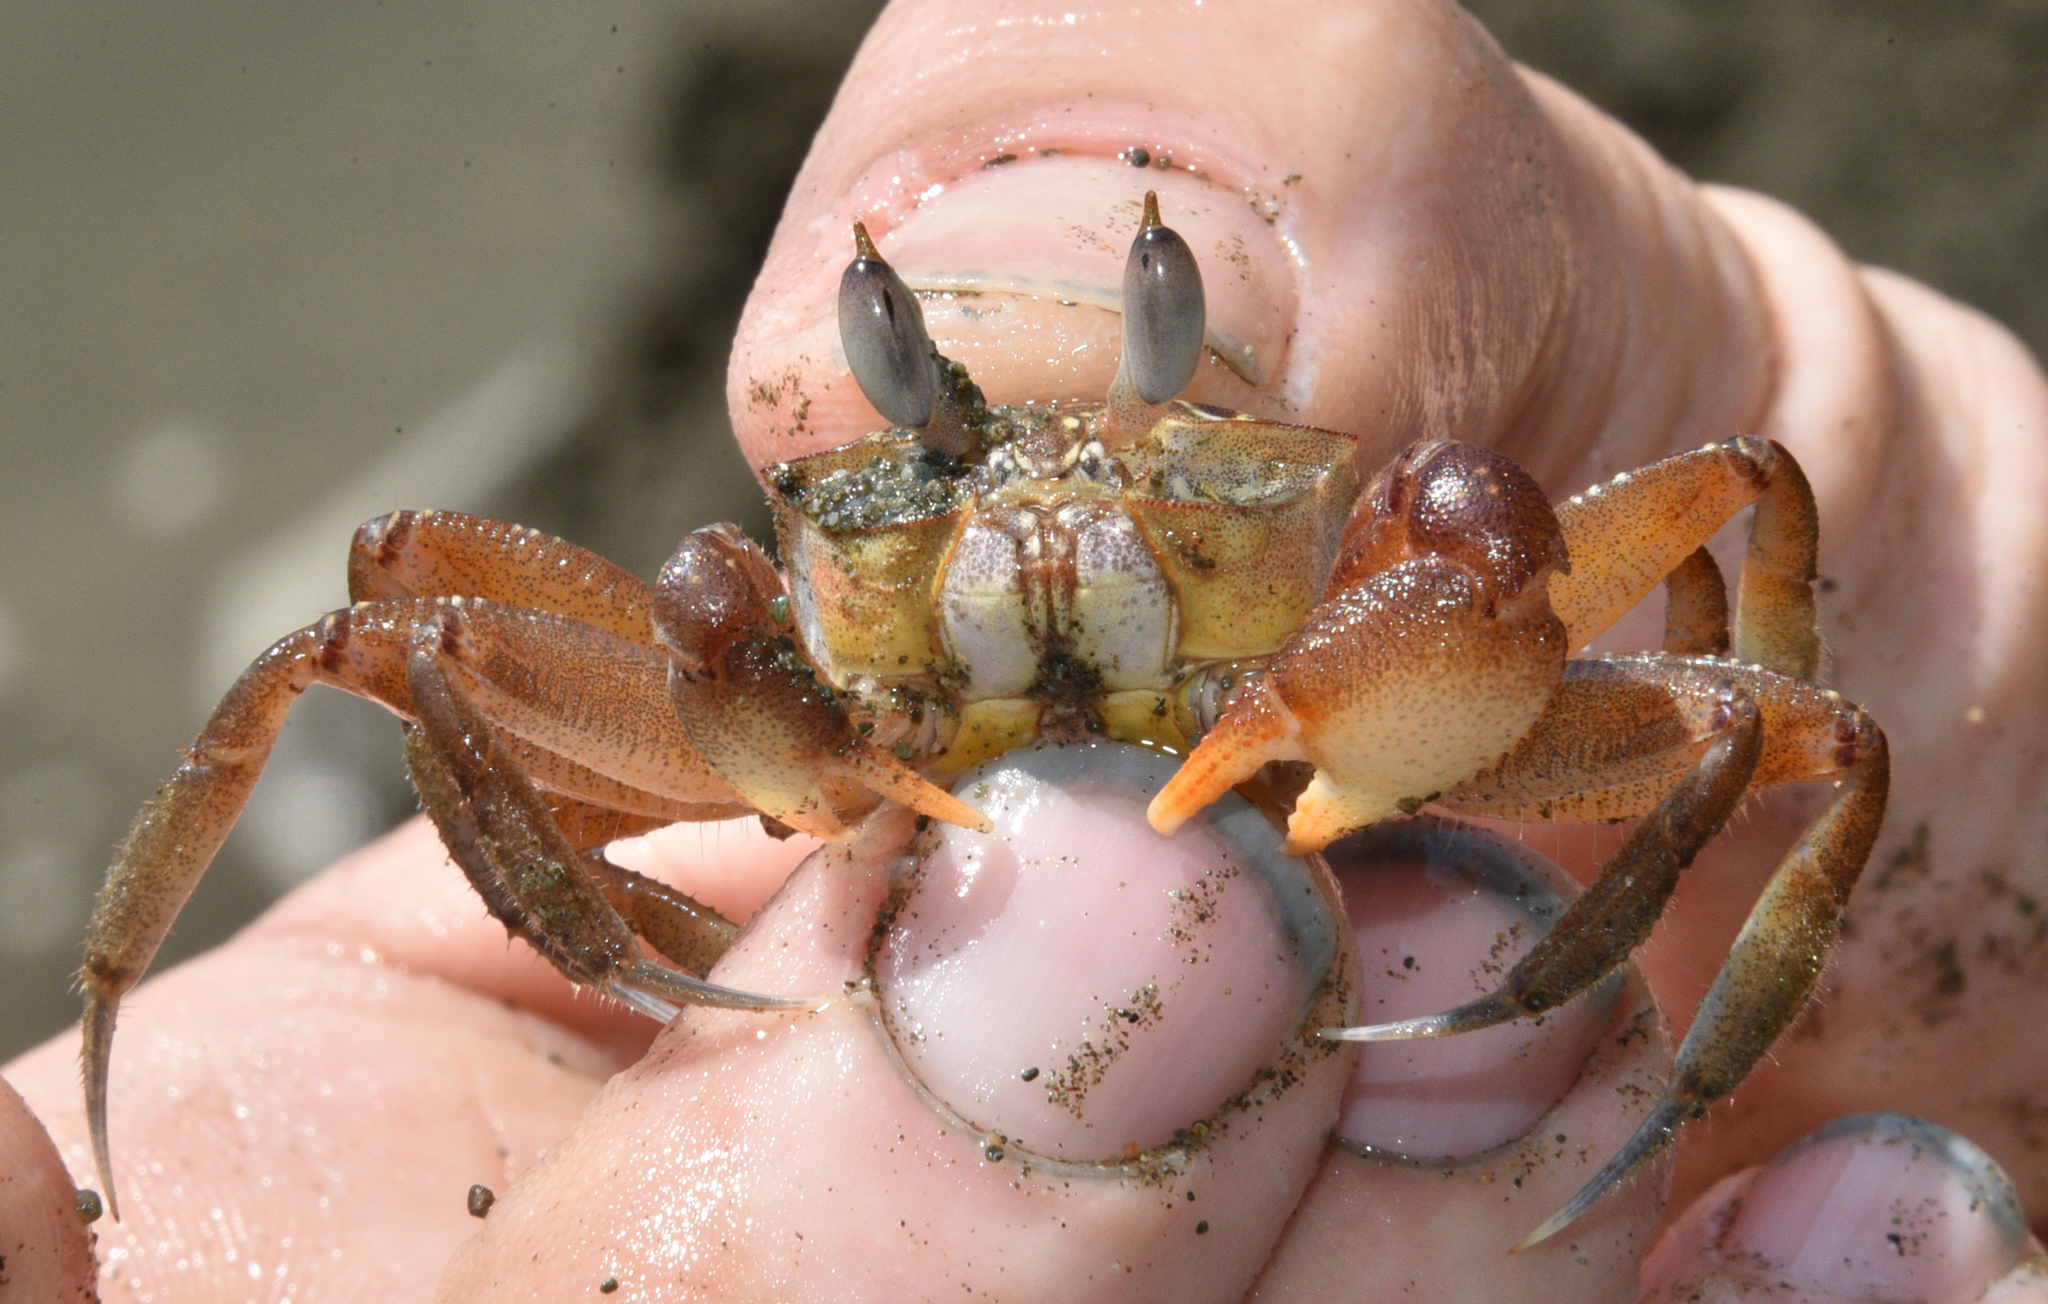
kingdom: Animalia
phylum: Arthropoda
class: Malacostraca
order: Decapoda
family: Ocypodidae
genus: Ocypode
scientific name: Ocypode gaudichaudii
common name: Pacific ghost crab
